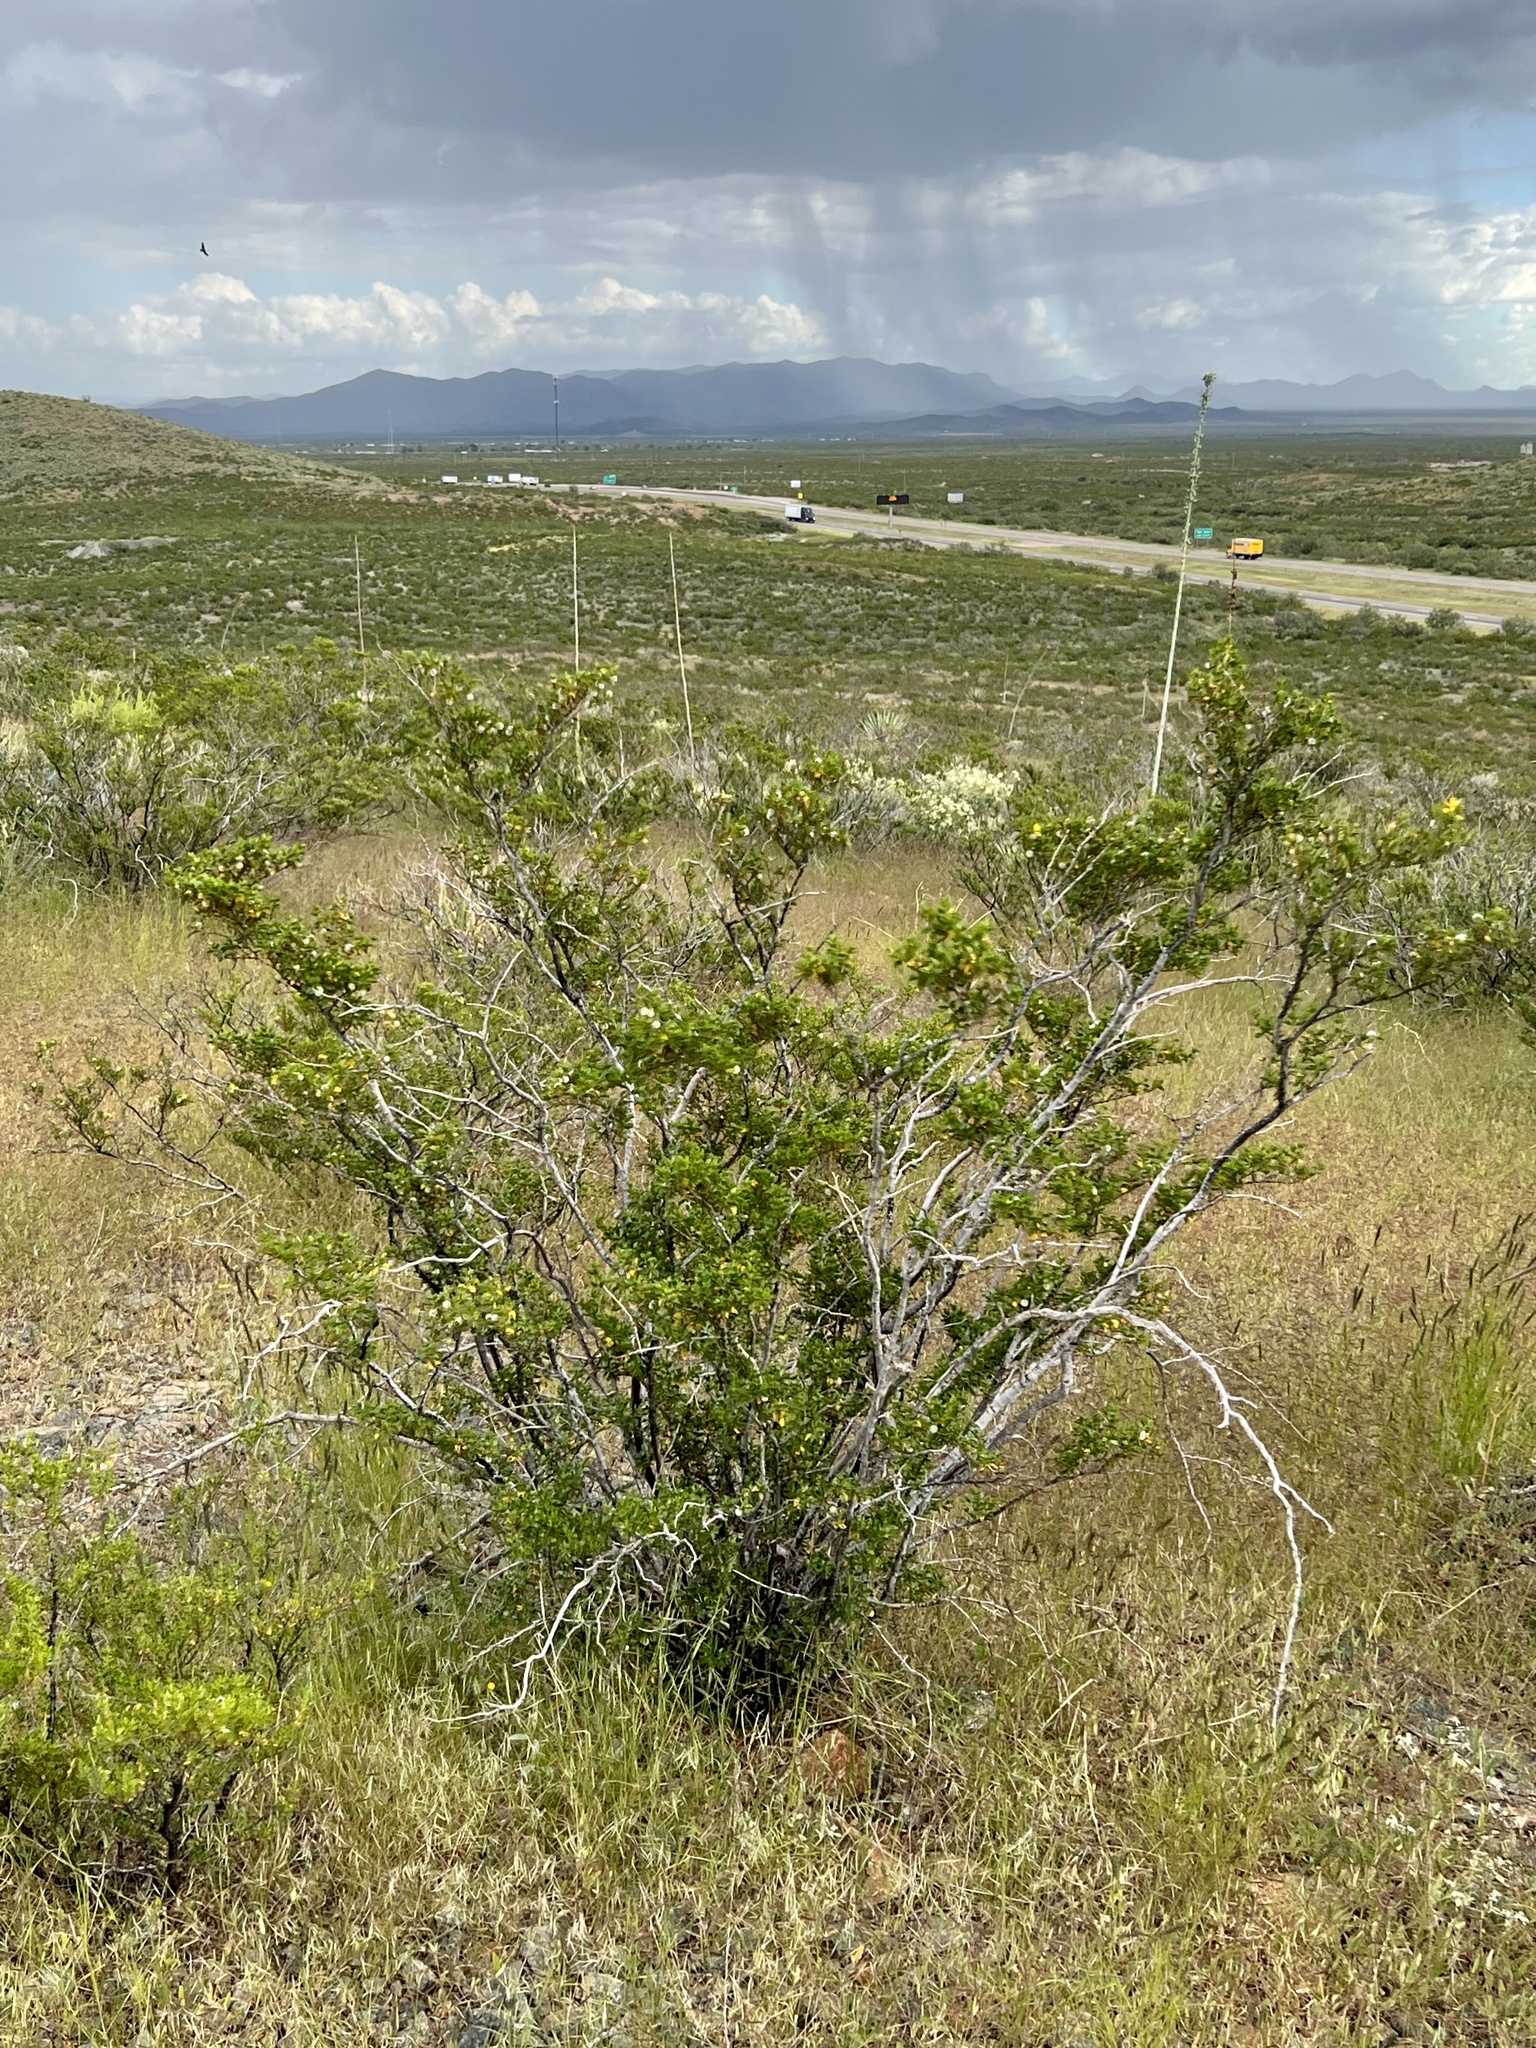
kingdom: Plantae
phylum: Tracheophyta
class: Magnoliopsida
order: Zygophyllales
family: Zygophyllaceae
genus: Larrea
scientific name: Larrea tridentata
